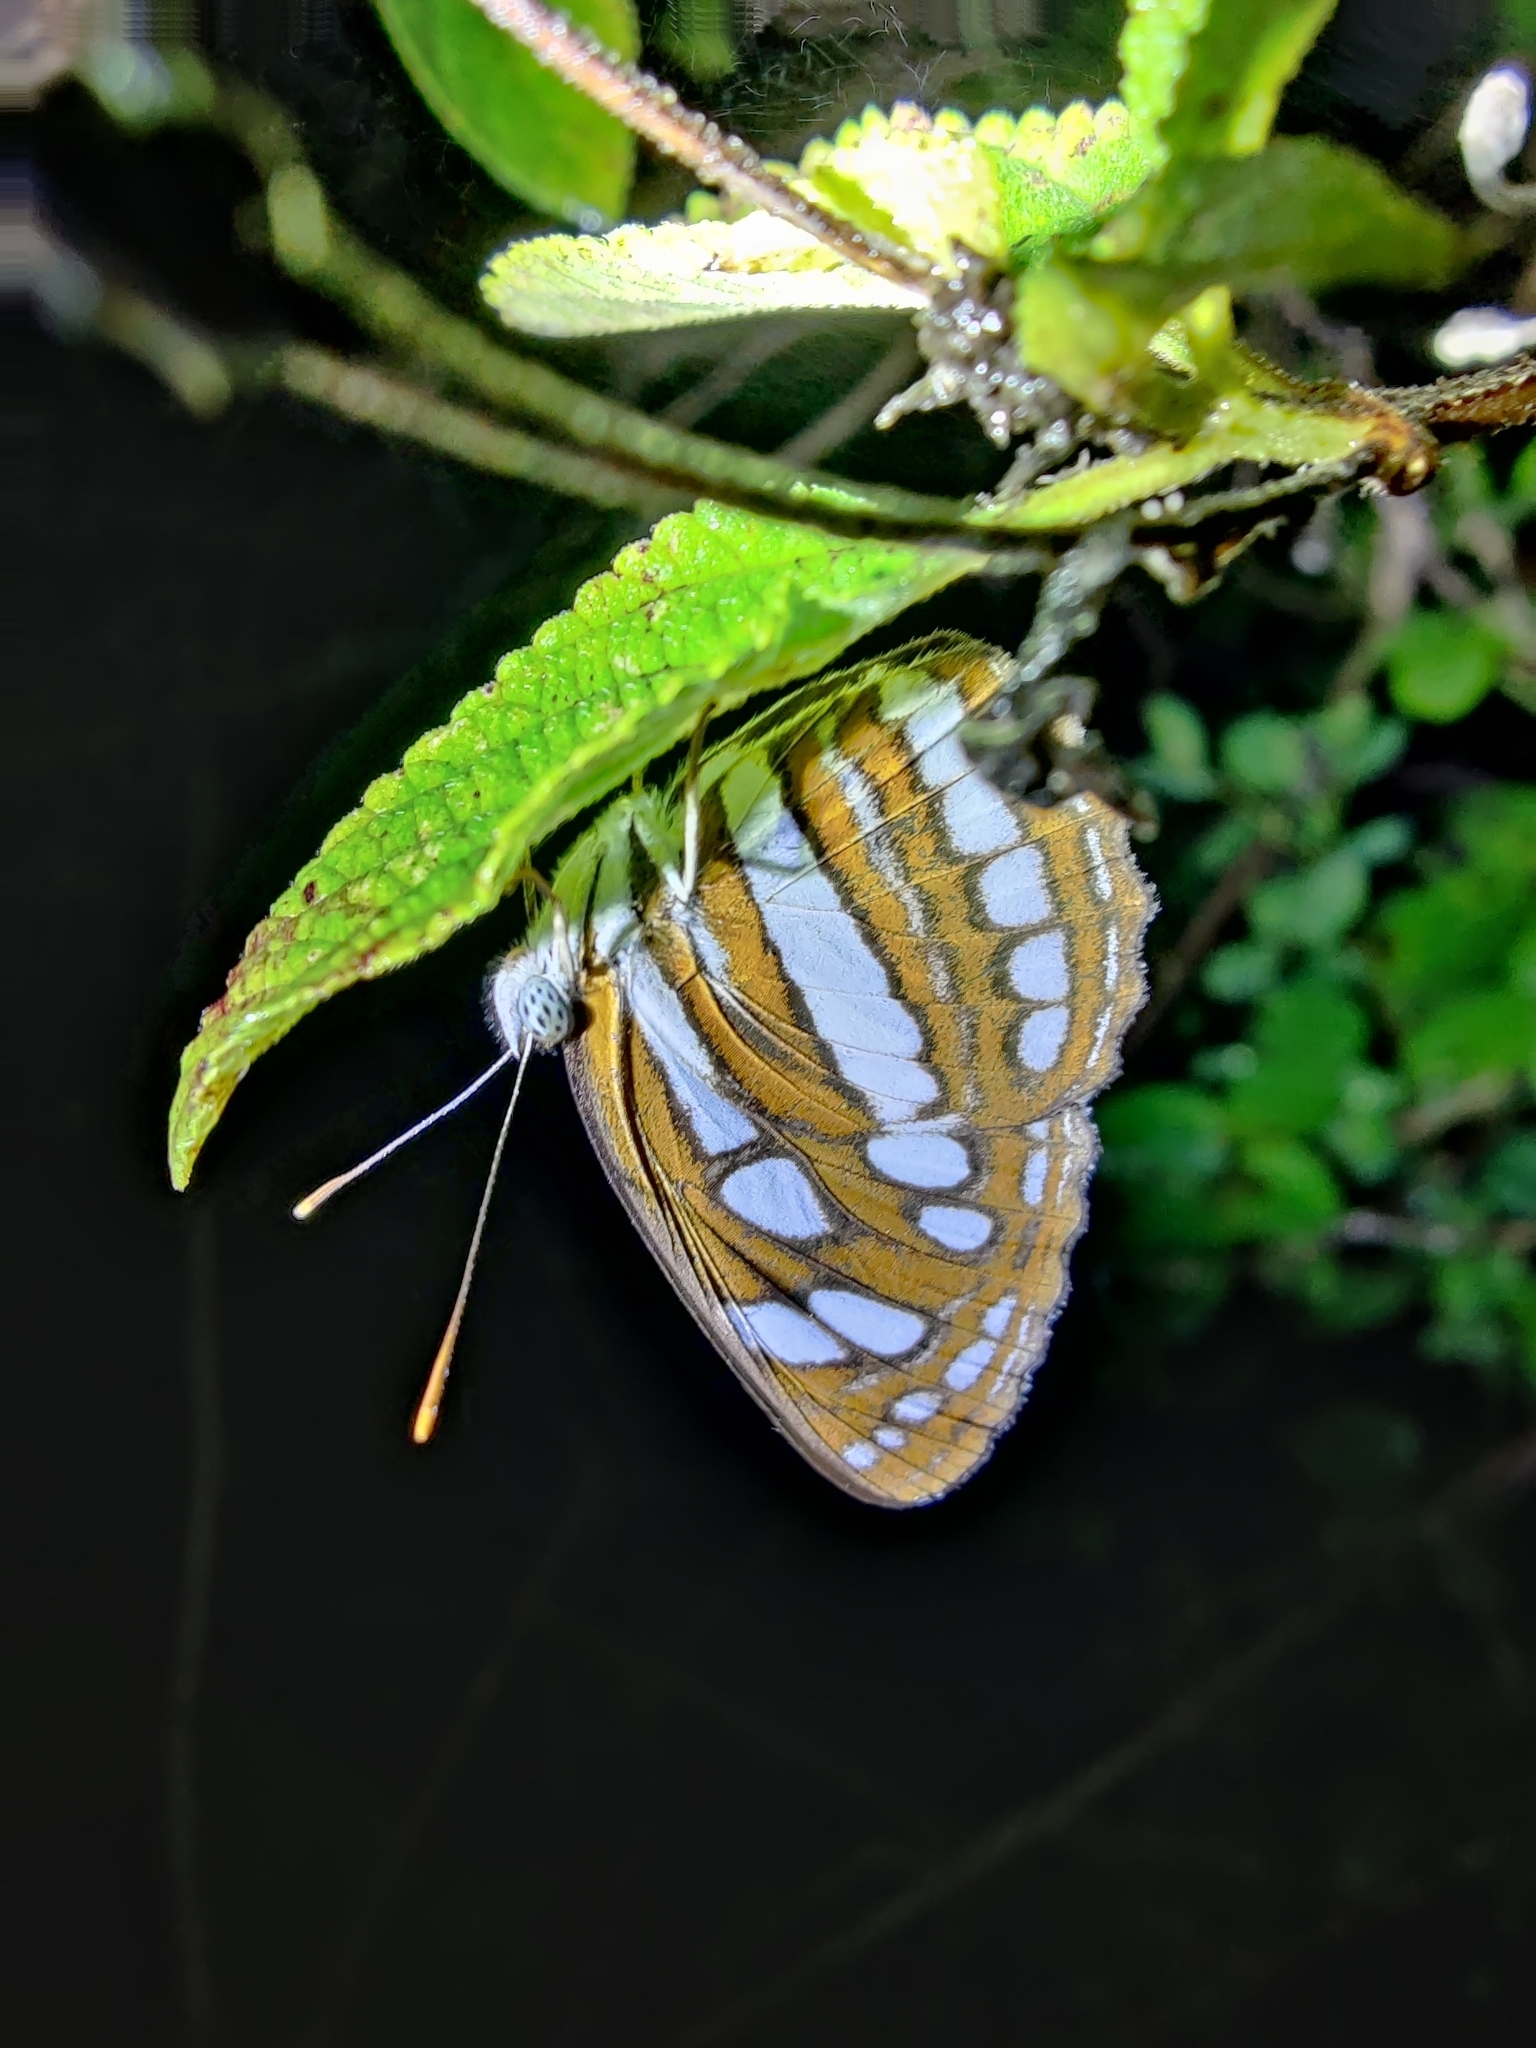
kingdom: Animalia
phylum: Arthropoda
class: Insecta
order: Lepidoptera
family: Nymphalidae
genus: Neptis
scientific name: Neptis hylas
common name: Common sailer
